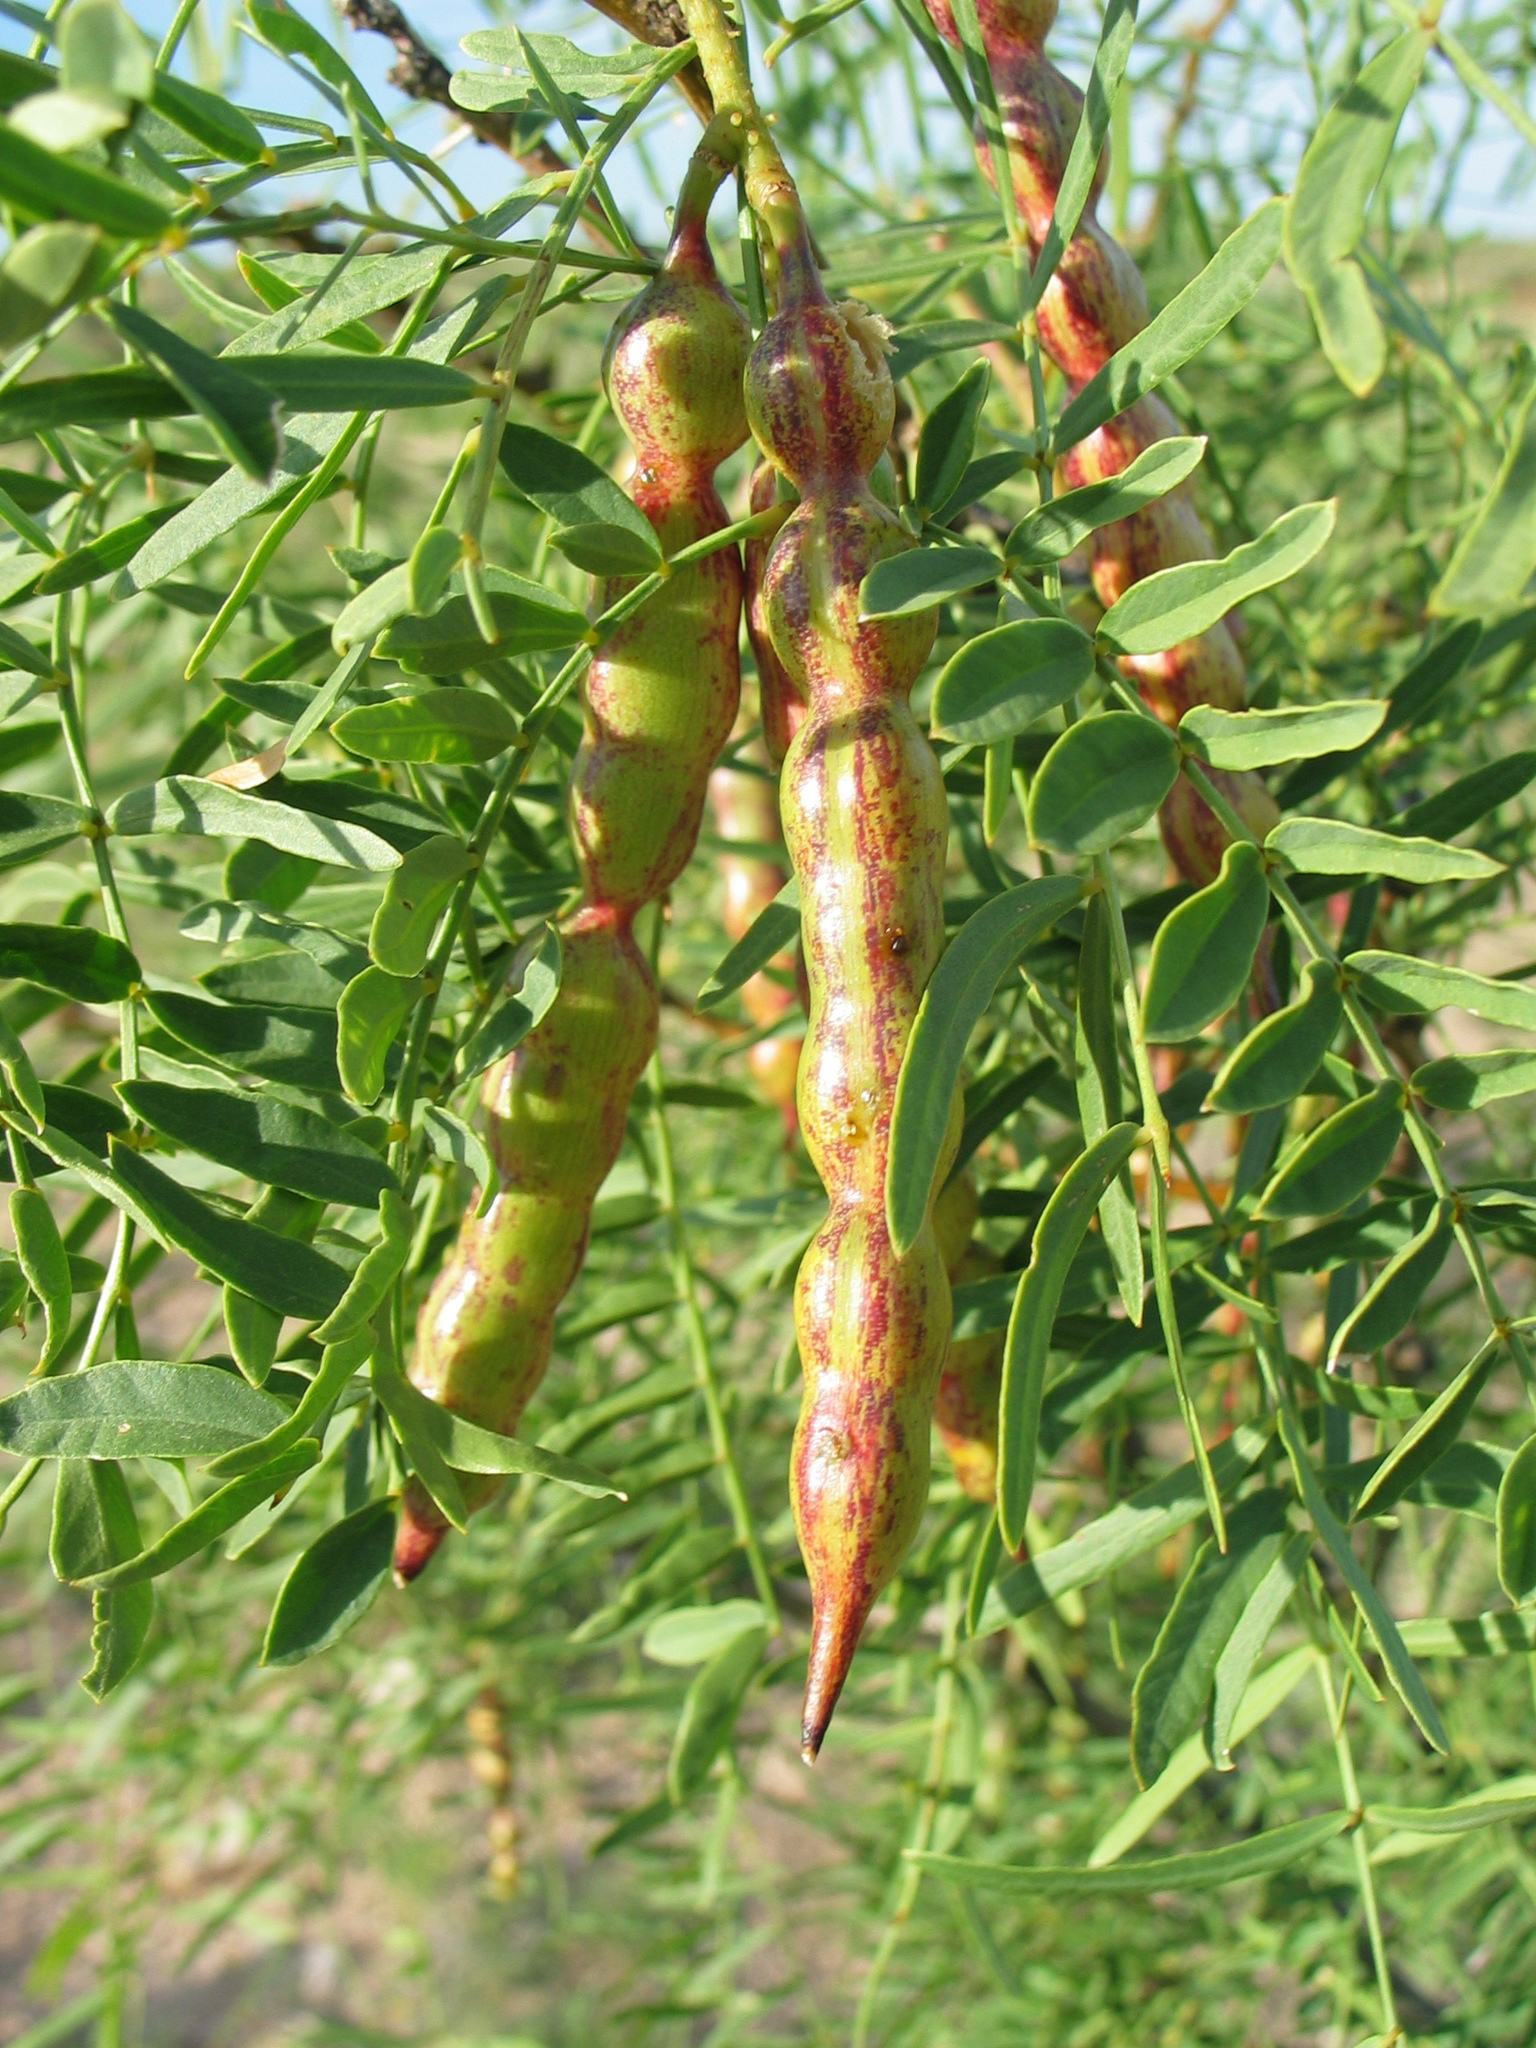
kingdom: Plantae
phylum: Tracheophyta
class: Magnoliopsida
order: Fabales
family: Fabaceae
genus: Prosopis
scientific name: Prosopis glandulosa
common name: Honey mesquite
